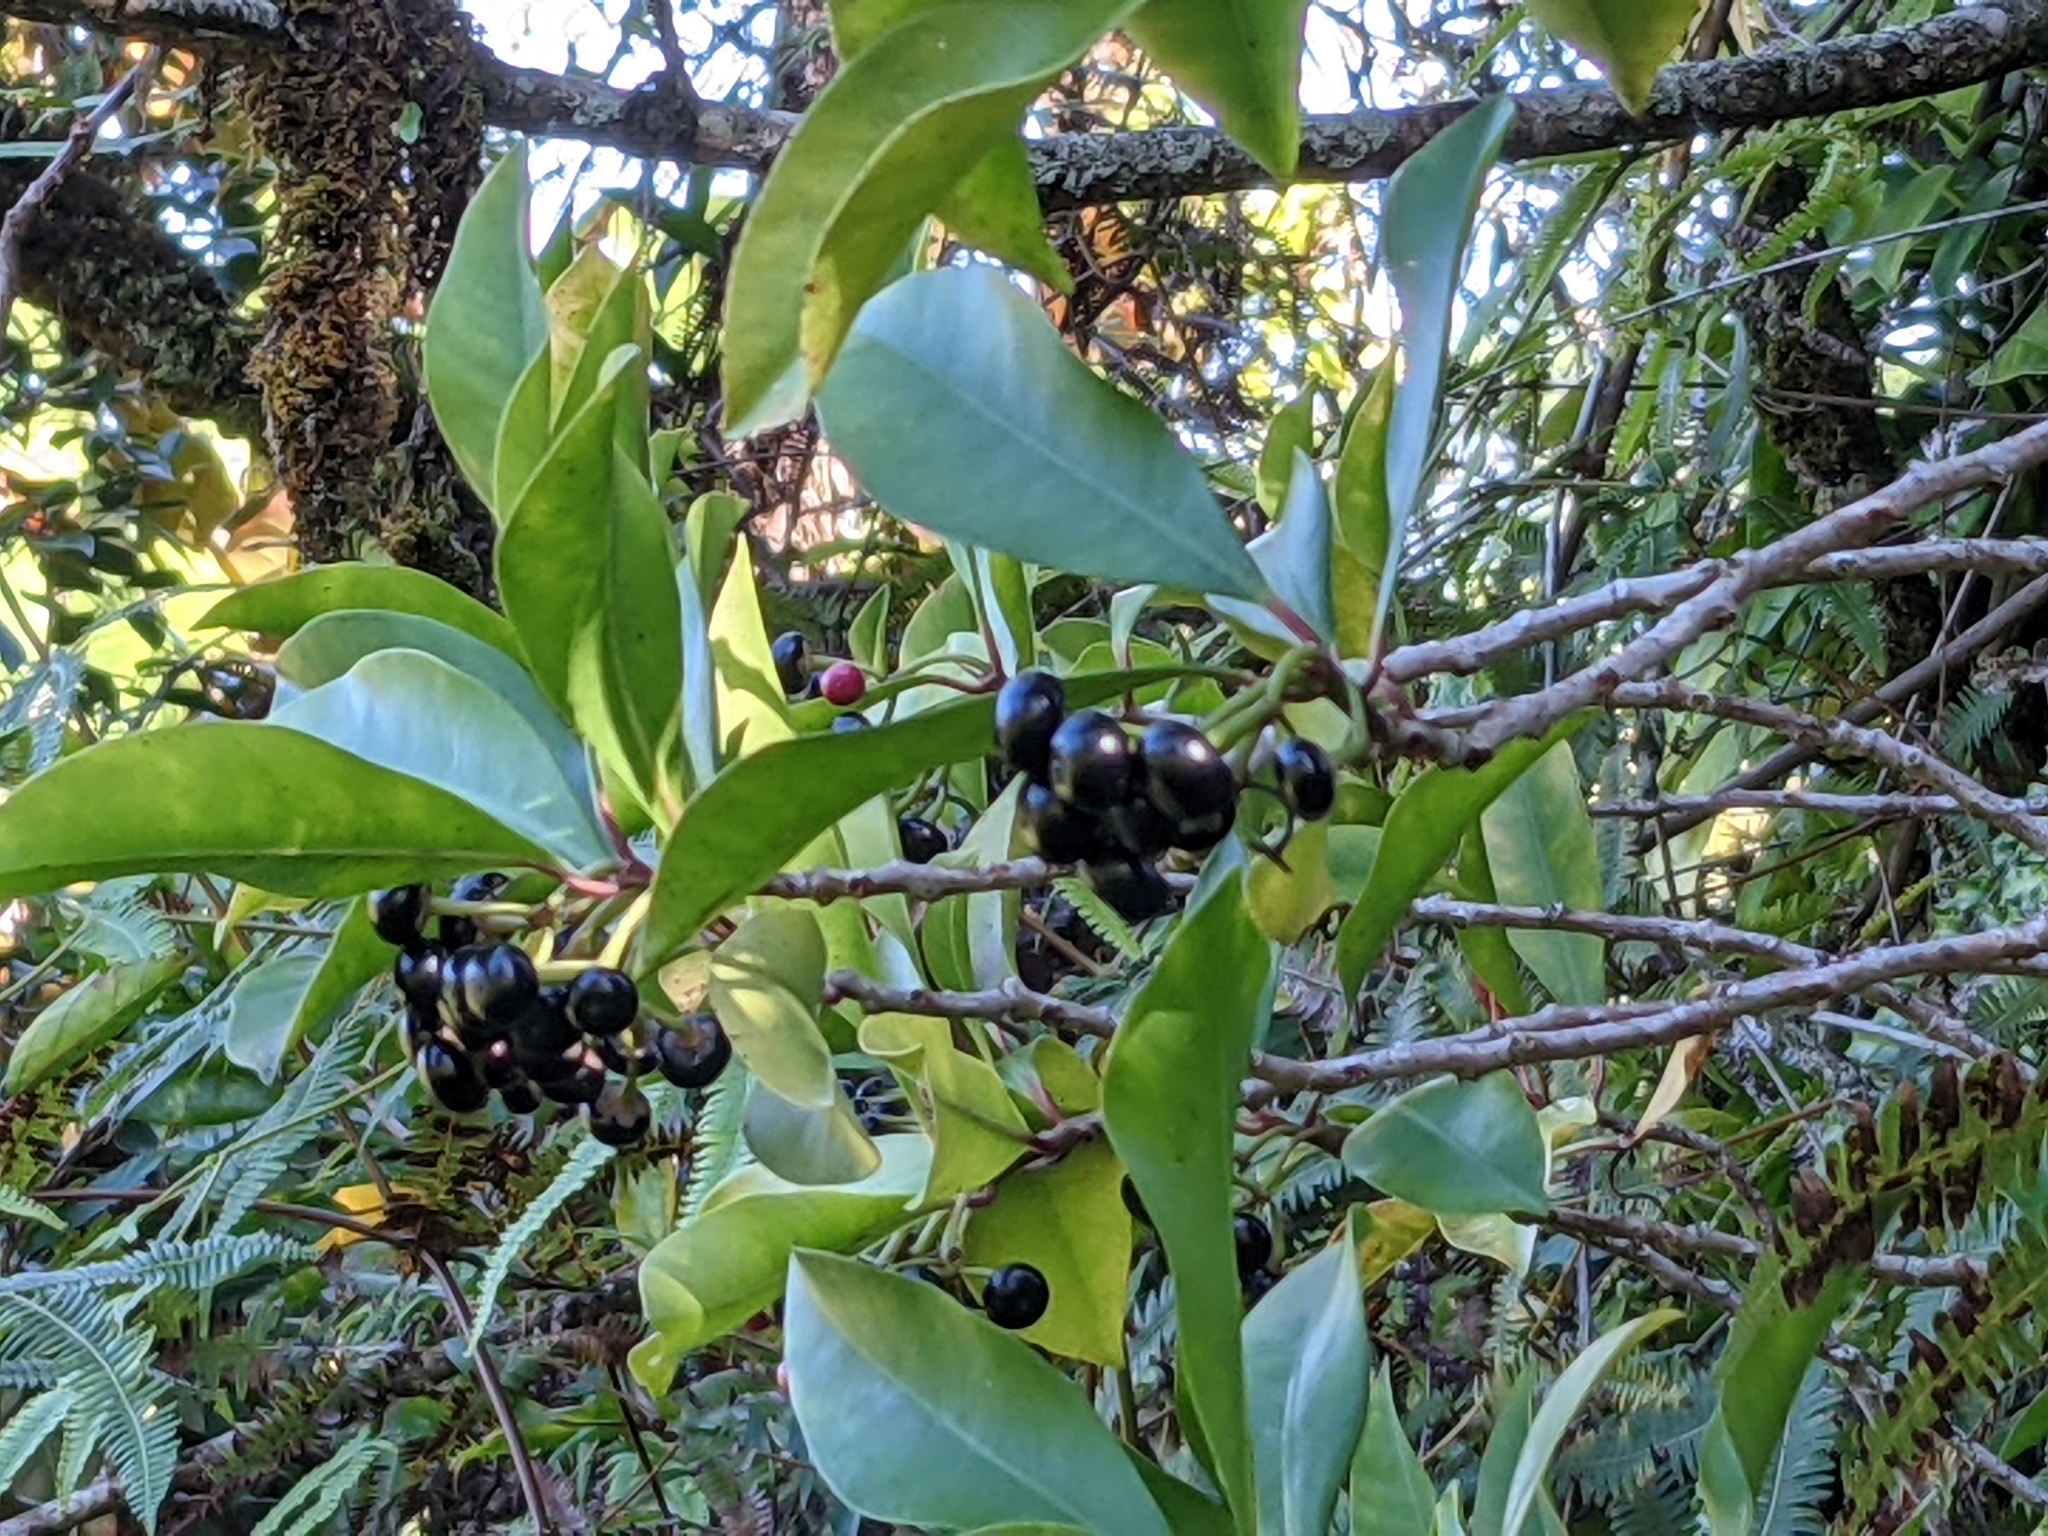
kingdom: Plantae
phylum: Tracheophyta
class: Magnoliopsida
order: Ericales
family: Primulaceae
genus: Ardisia
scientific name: Ardisia elliptica
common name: Shoebutton
